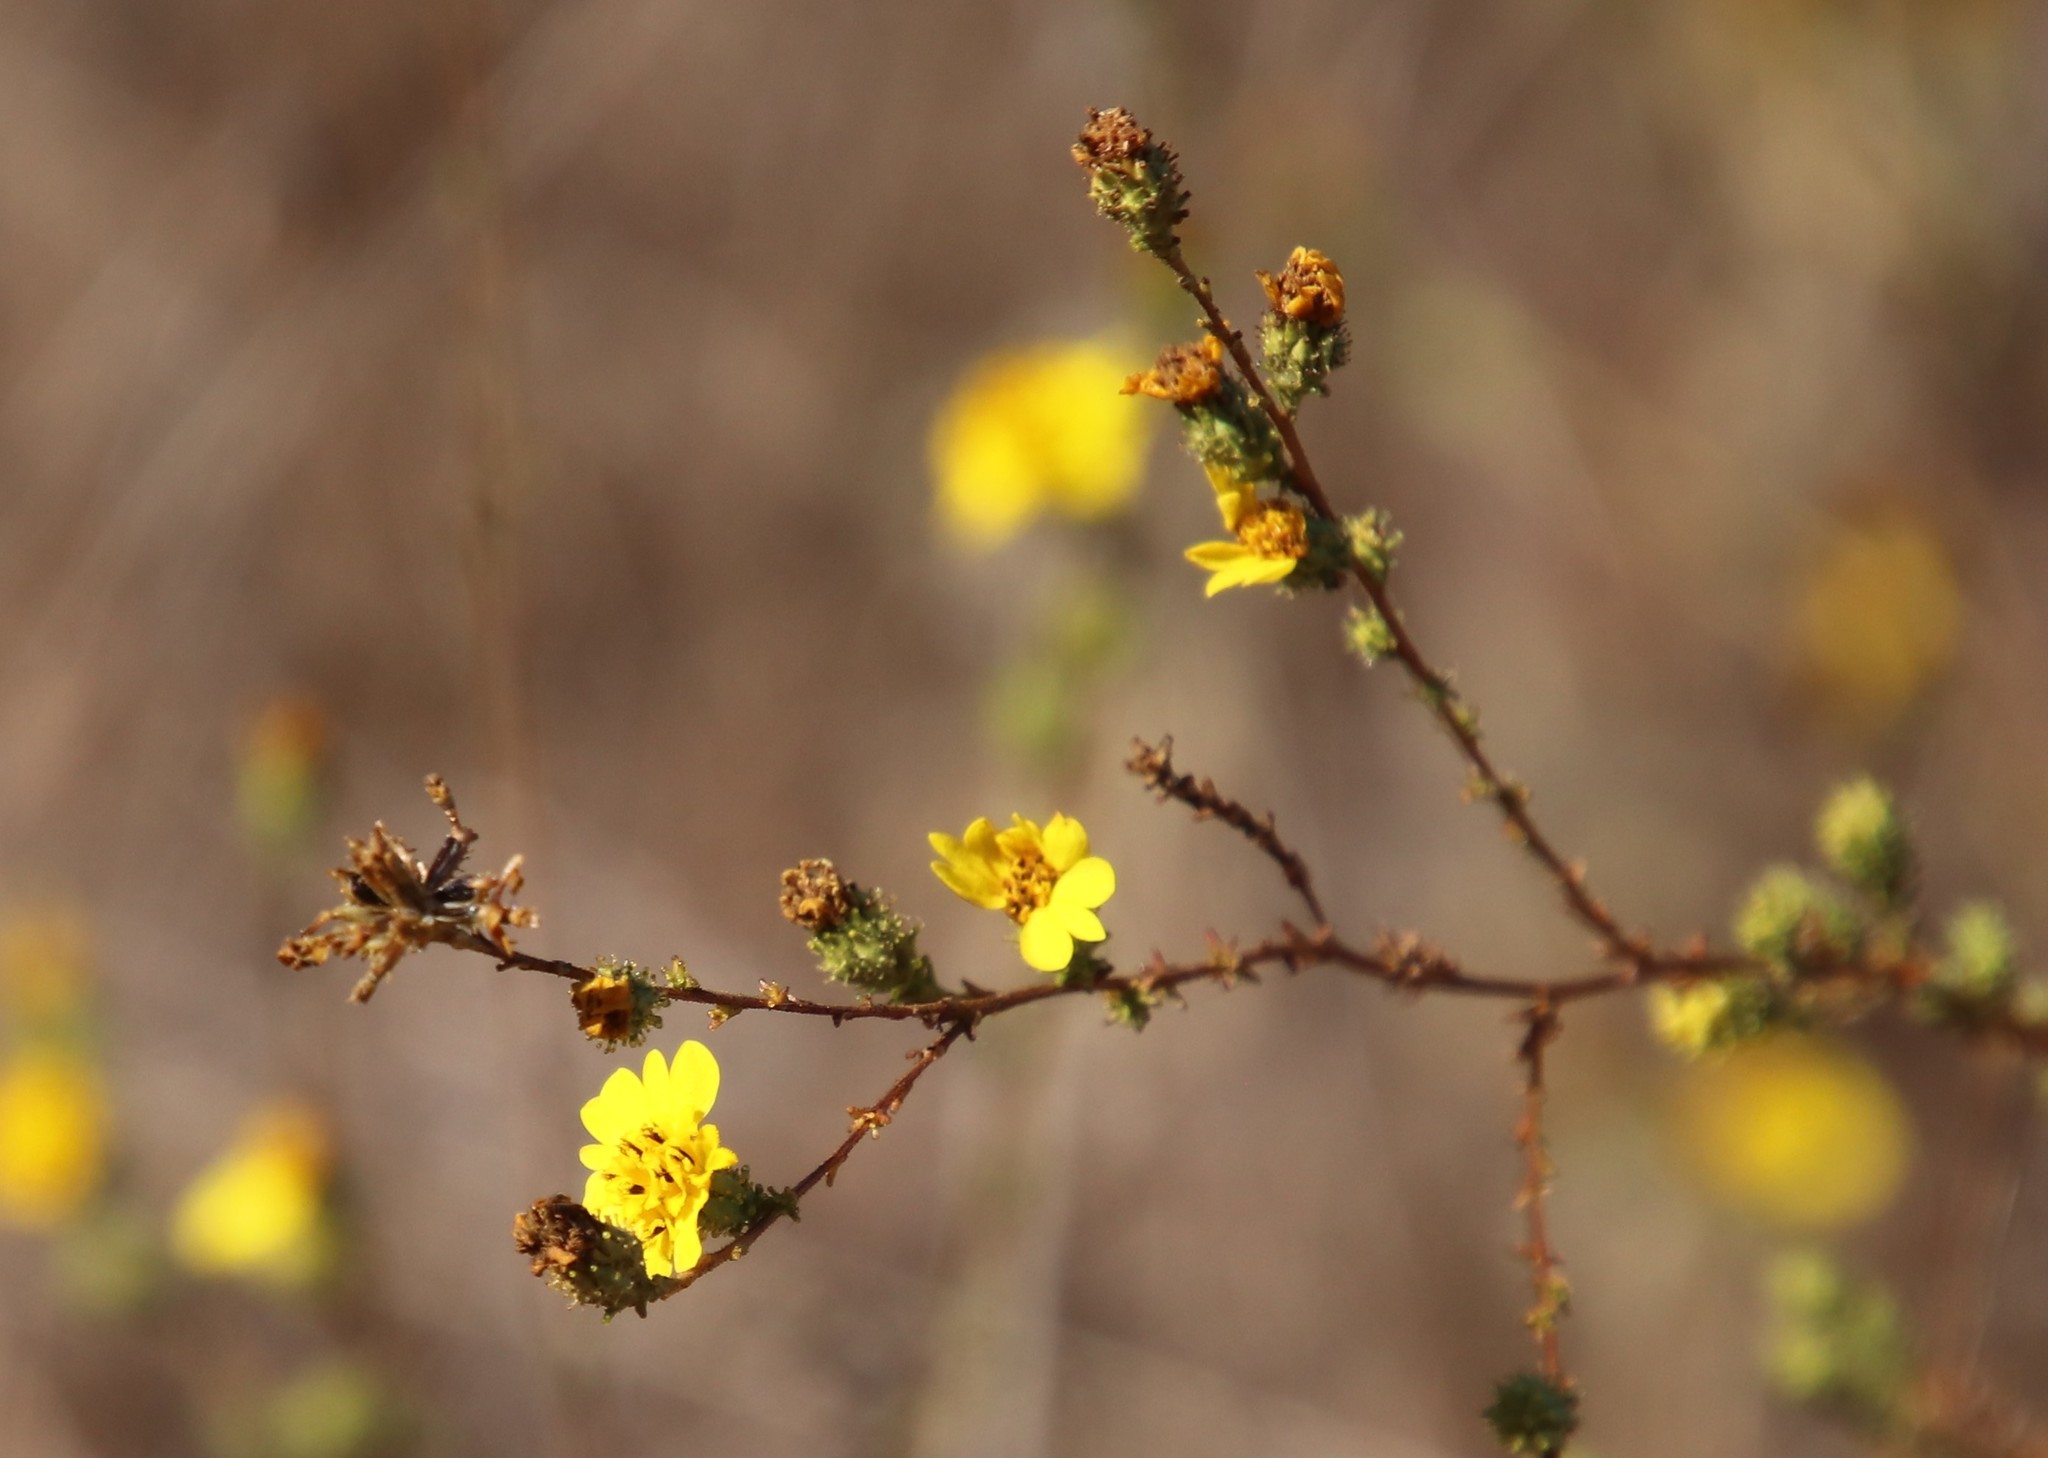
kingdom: Plantae
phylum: Tracheophyta
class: Magnoliopsida
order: Asterales
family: Asteraceae
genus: Holocarpha
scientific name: Holocarpha virgata
